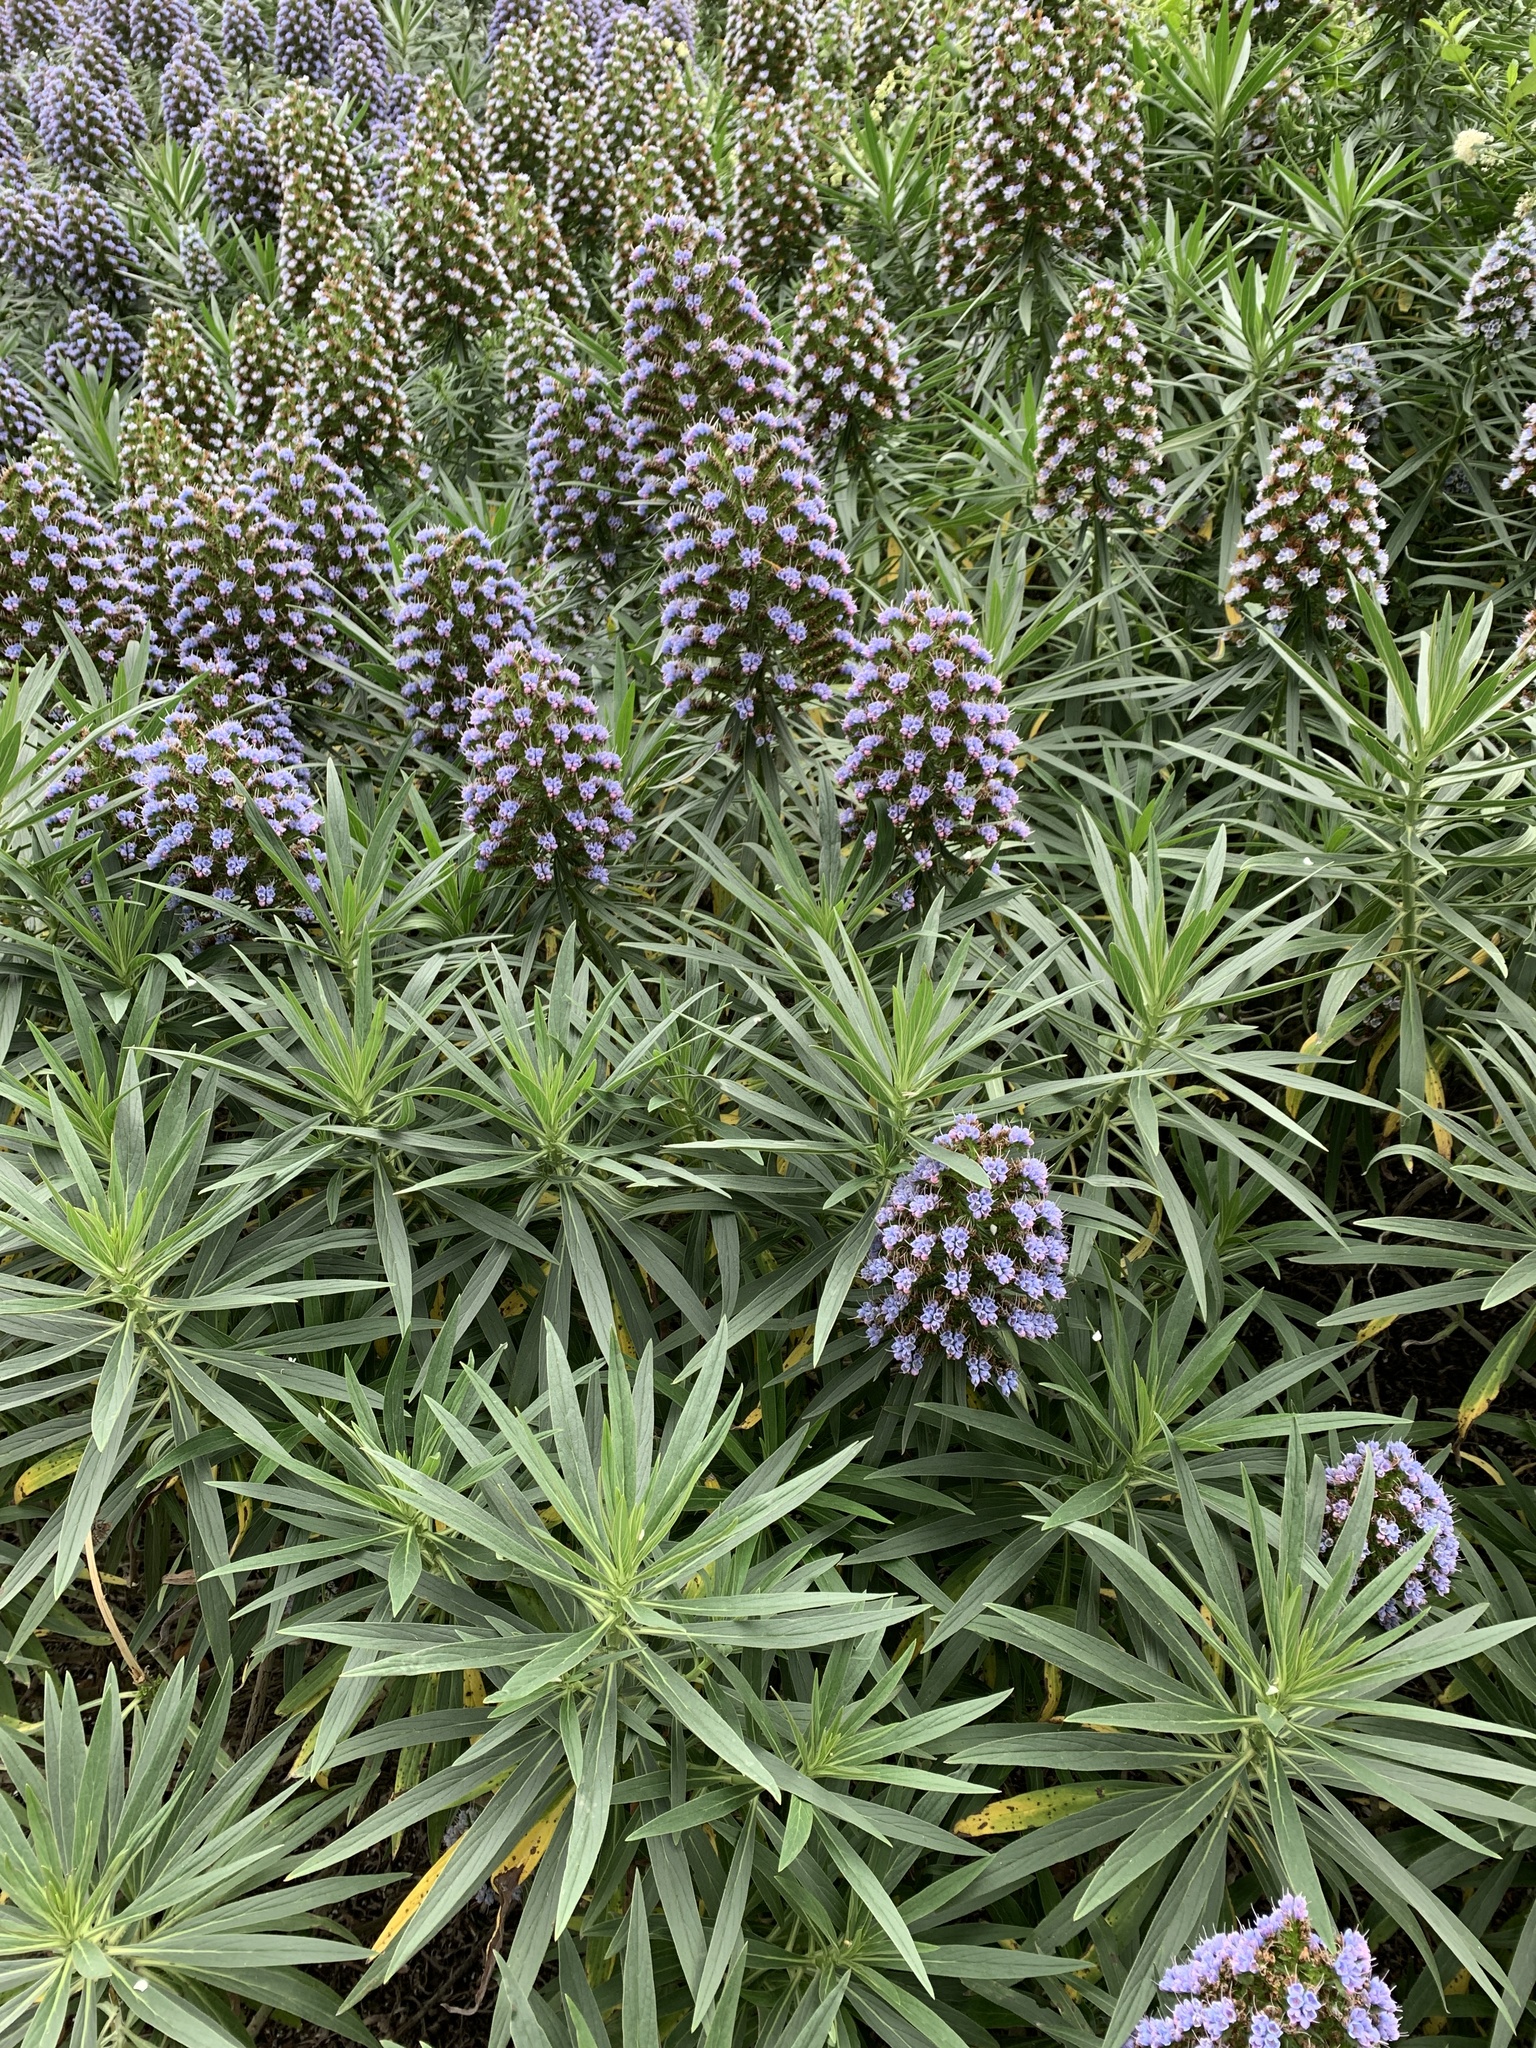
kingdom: Plantae
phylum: Tracheophyta
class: Magnoliopsida
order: Boraginales
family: Boraginaceae
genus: Echium
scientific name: Echium candicans
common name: Pride of madeira
